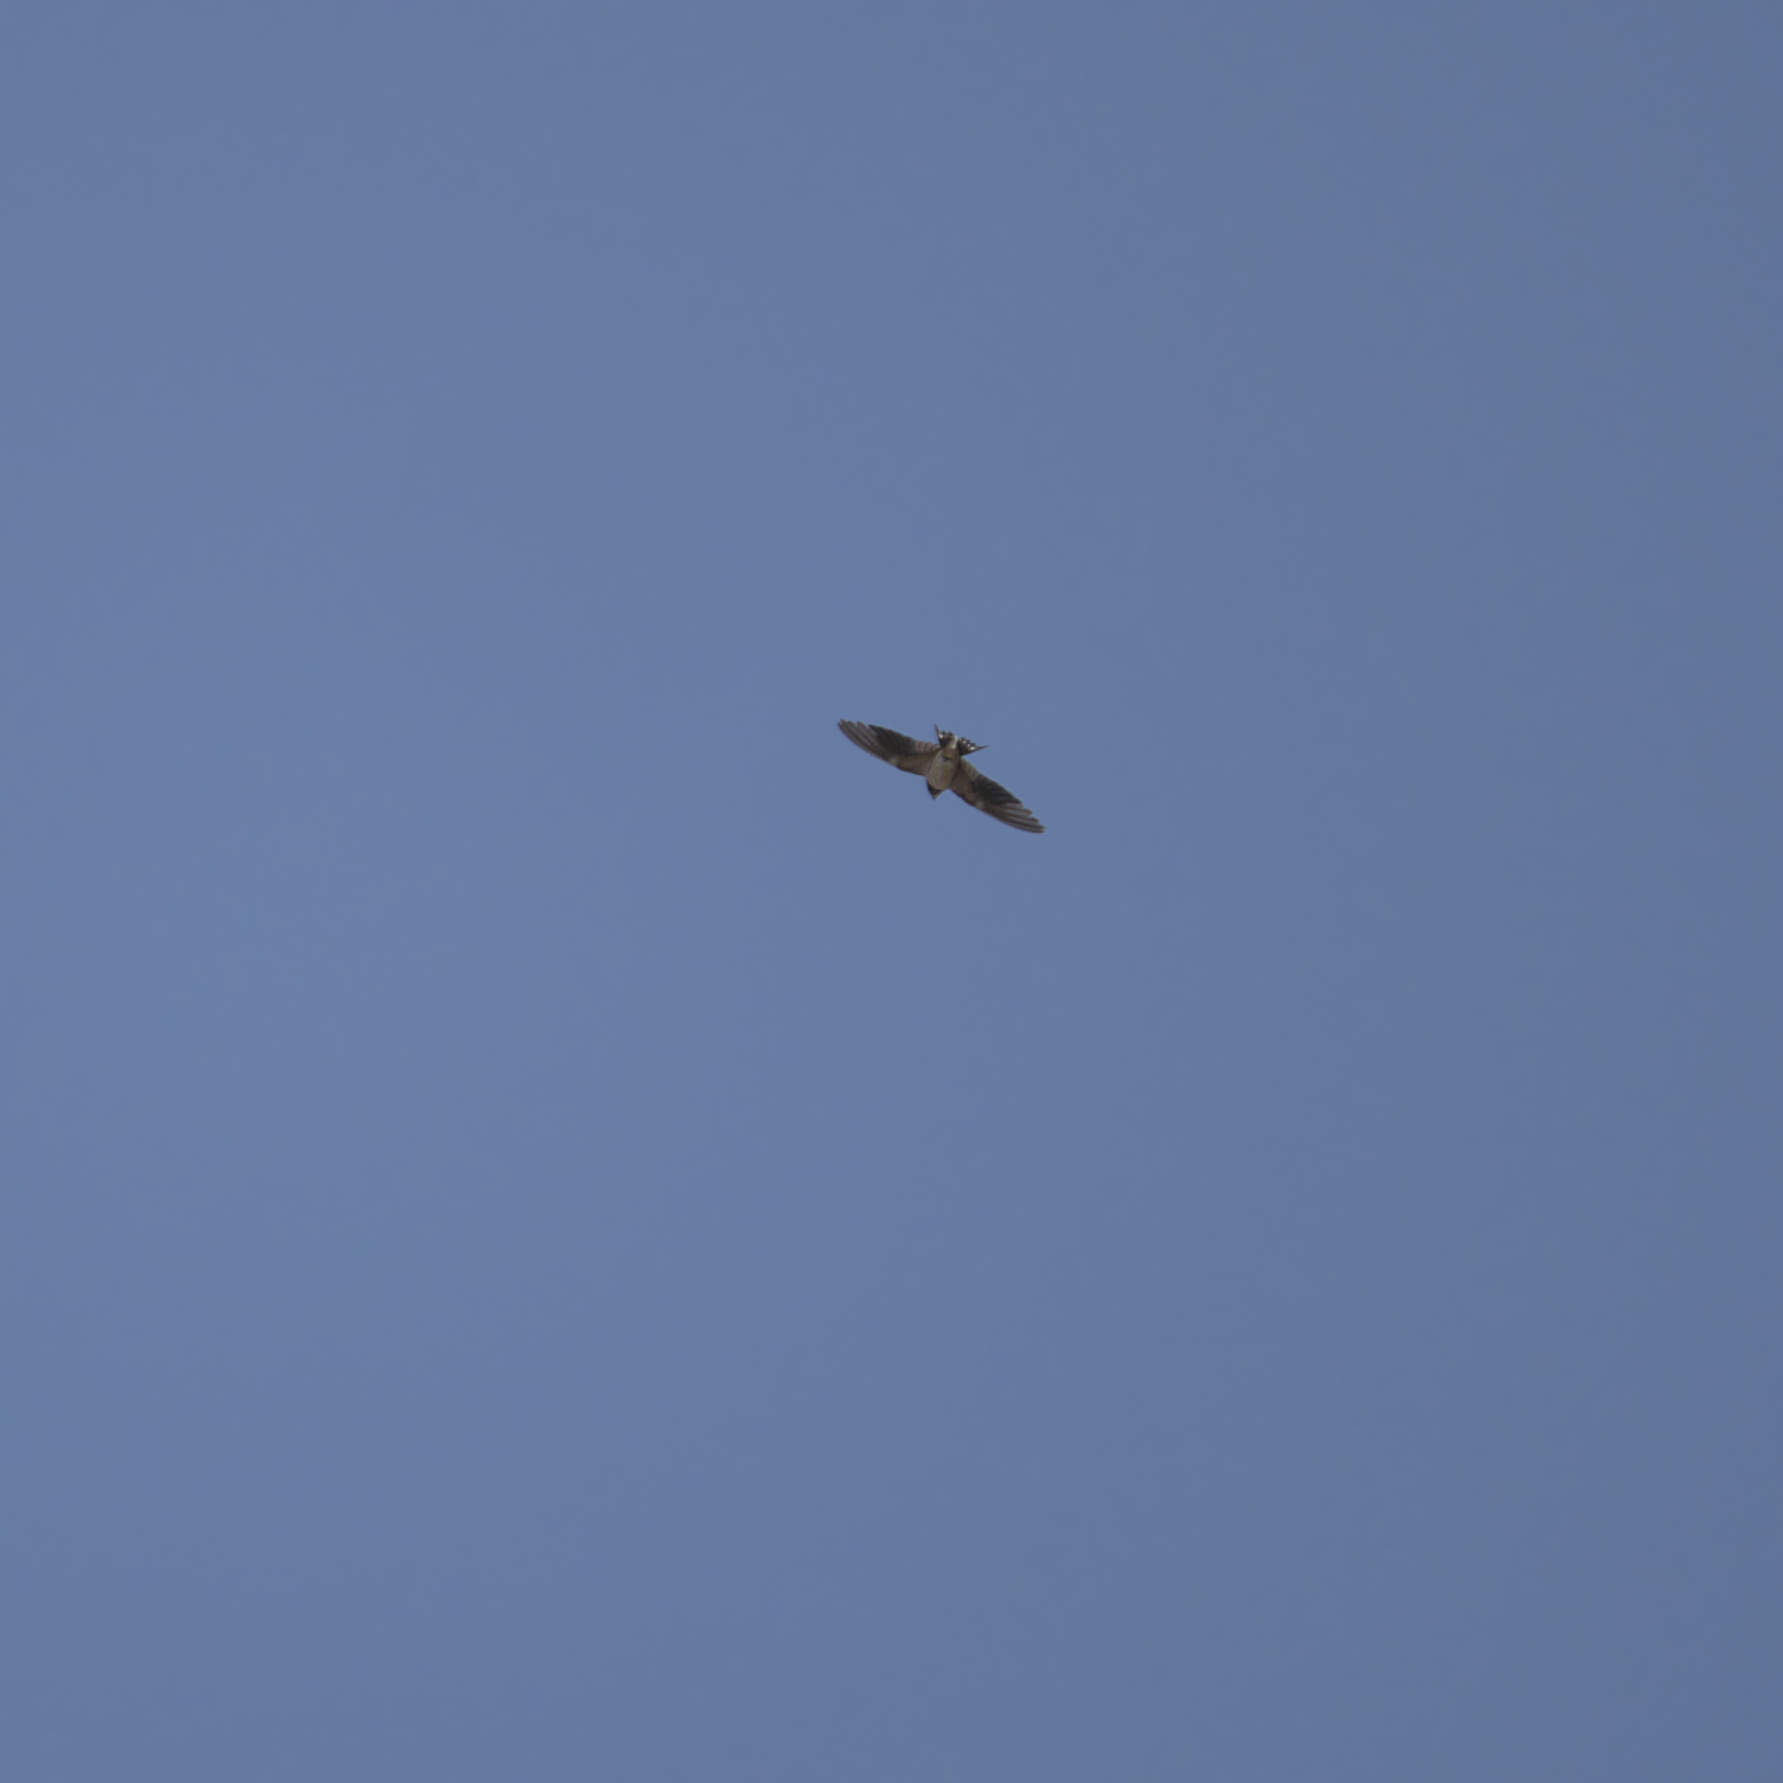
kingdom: Animalia
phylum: Chordata
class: Aves
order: Passeriformes
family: Hirundinidae
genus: Hirundo
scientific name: Hirundo rustica
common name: Barn swallow
